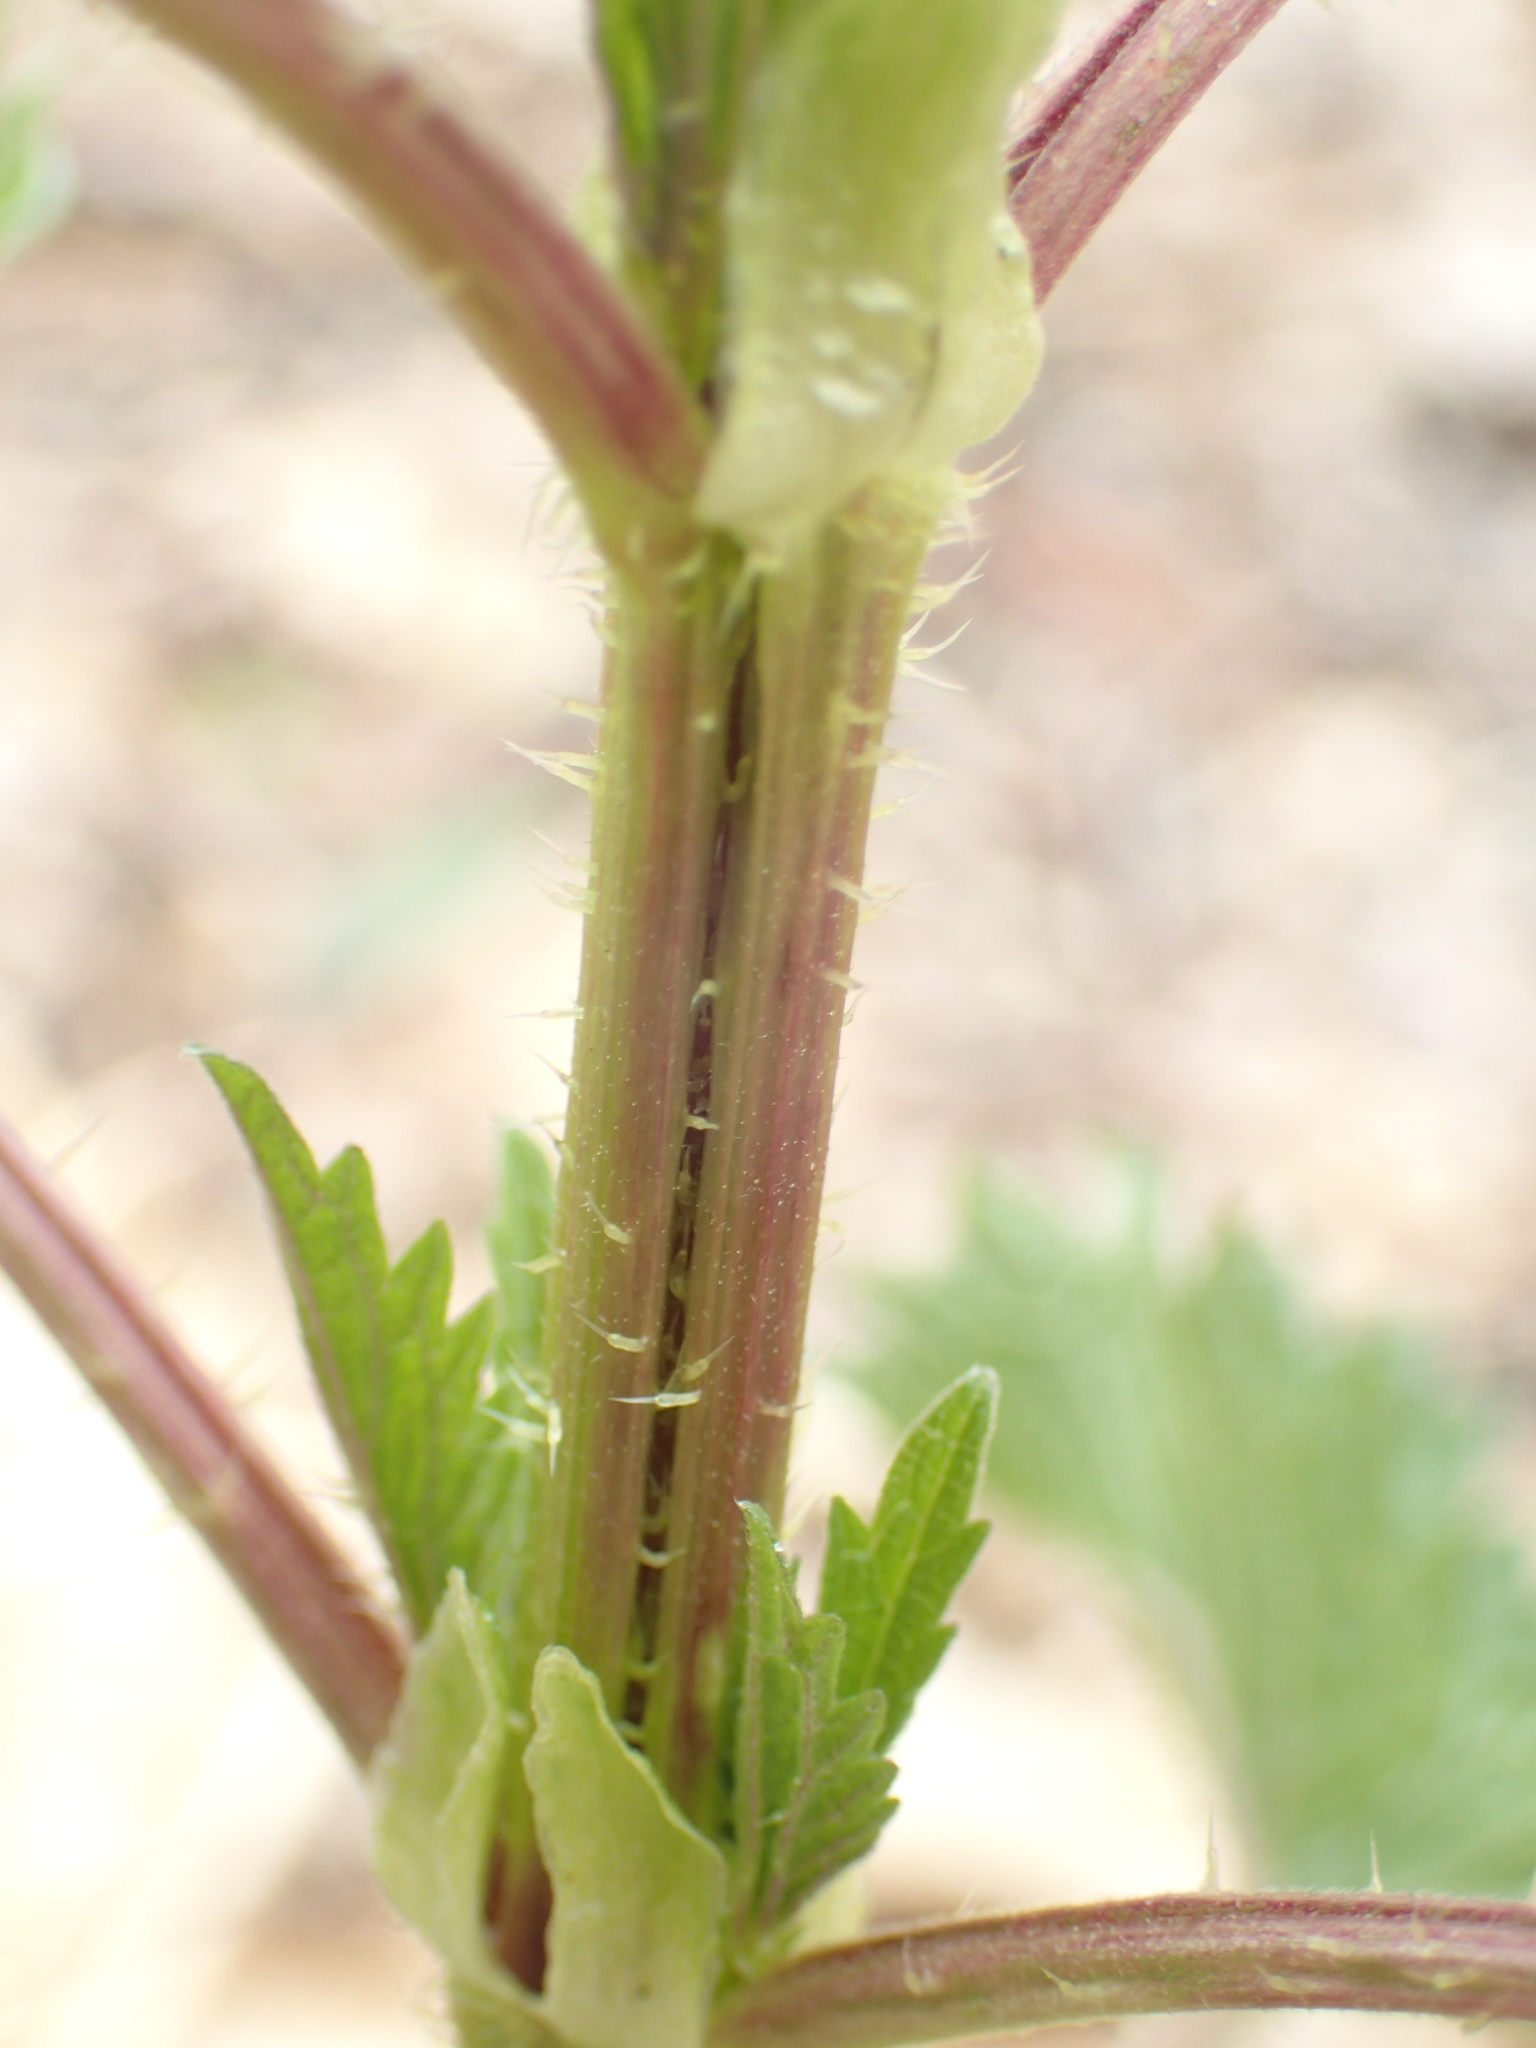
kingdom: Plantae
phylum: Tracheophyta
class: Magnoliopsida
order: Rosales
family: Urticaceae
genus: Urtica
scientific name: Urtica dioica
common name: Common nettle
